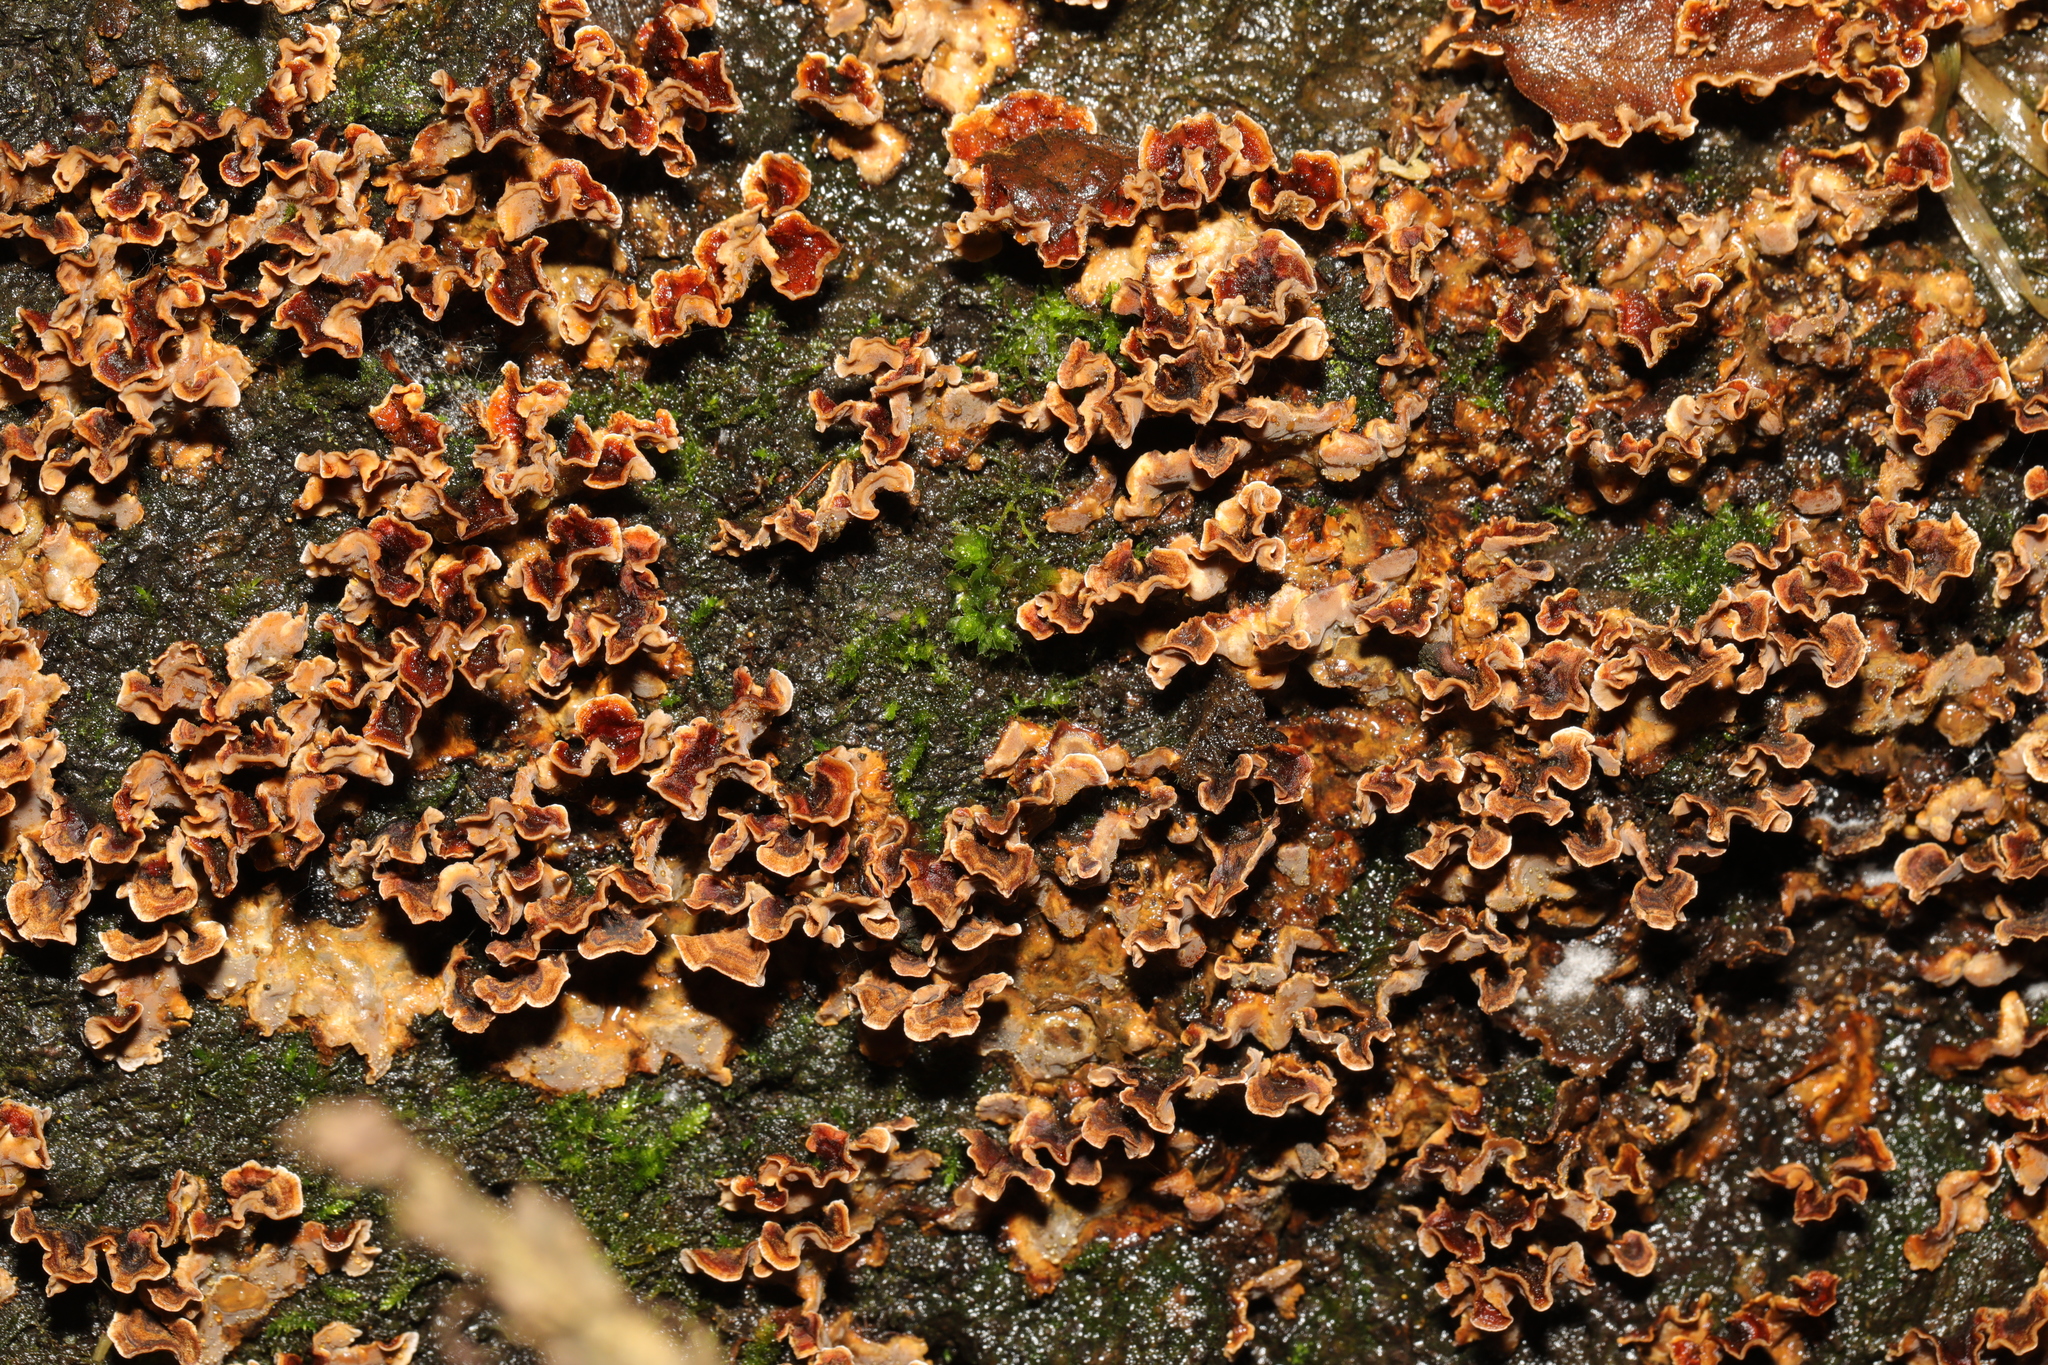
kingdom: Fungi
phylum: Basidiomycota
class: Agaricomycetes
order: Russulales
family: Stereaceae
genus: Stereum
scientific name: Stereum gausapatum
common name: Bleeding oak crust
